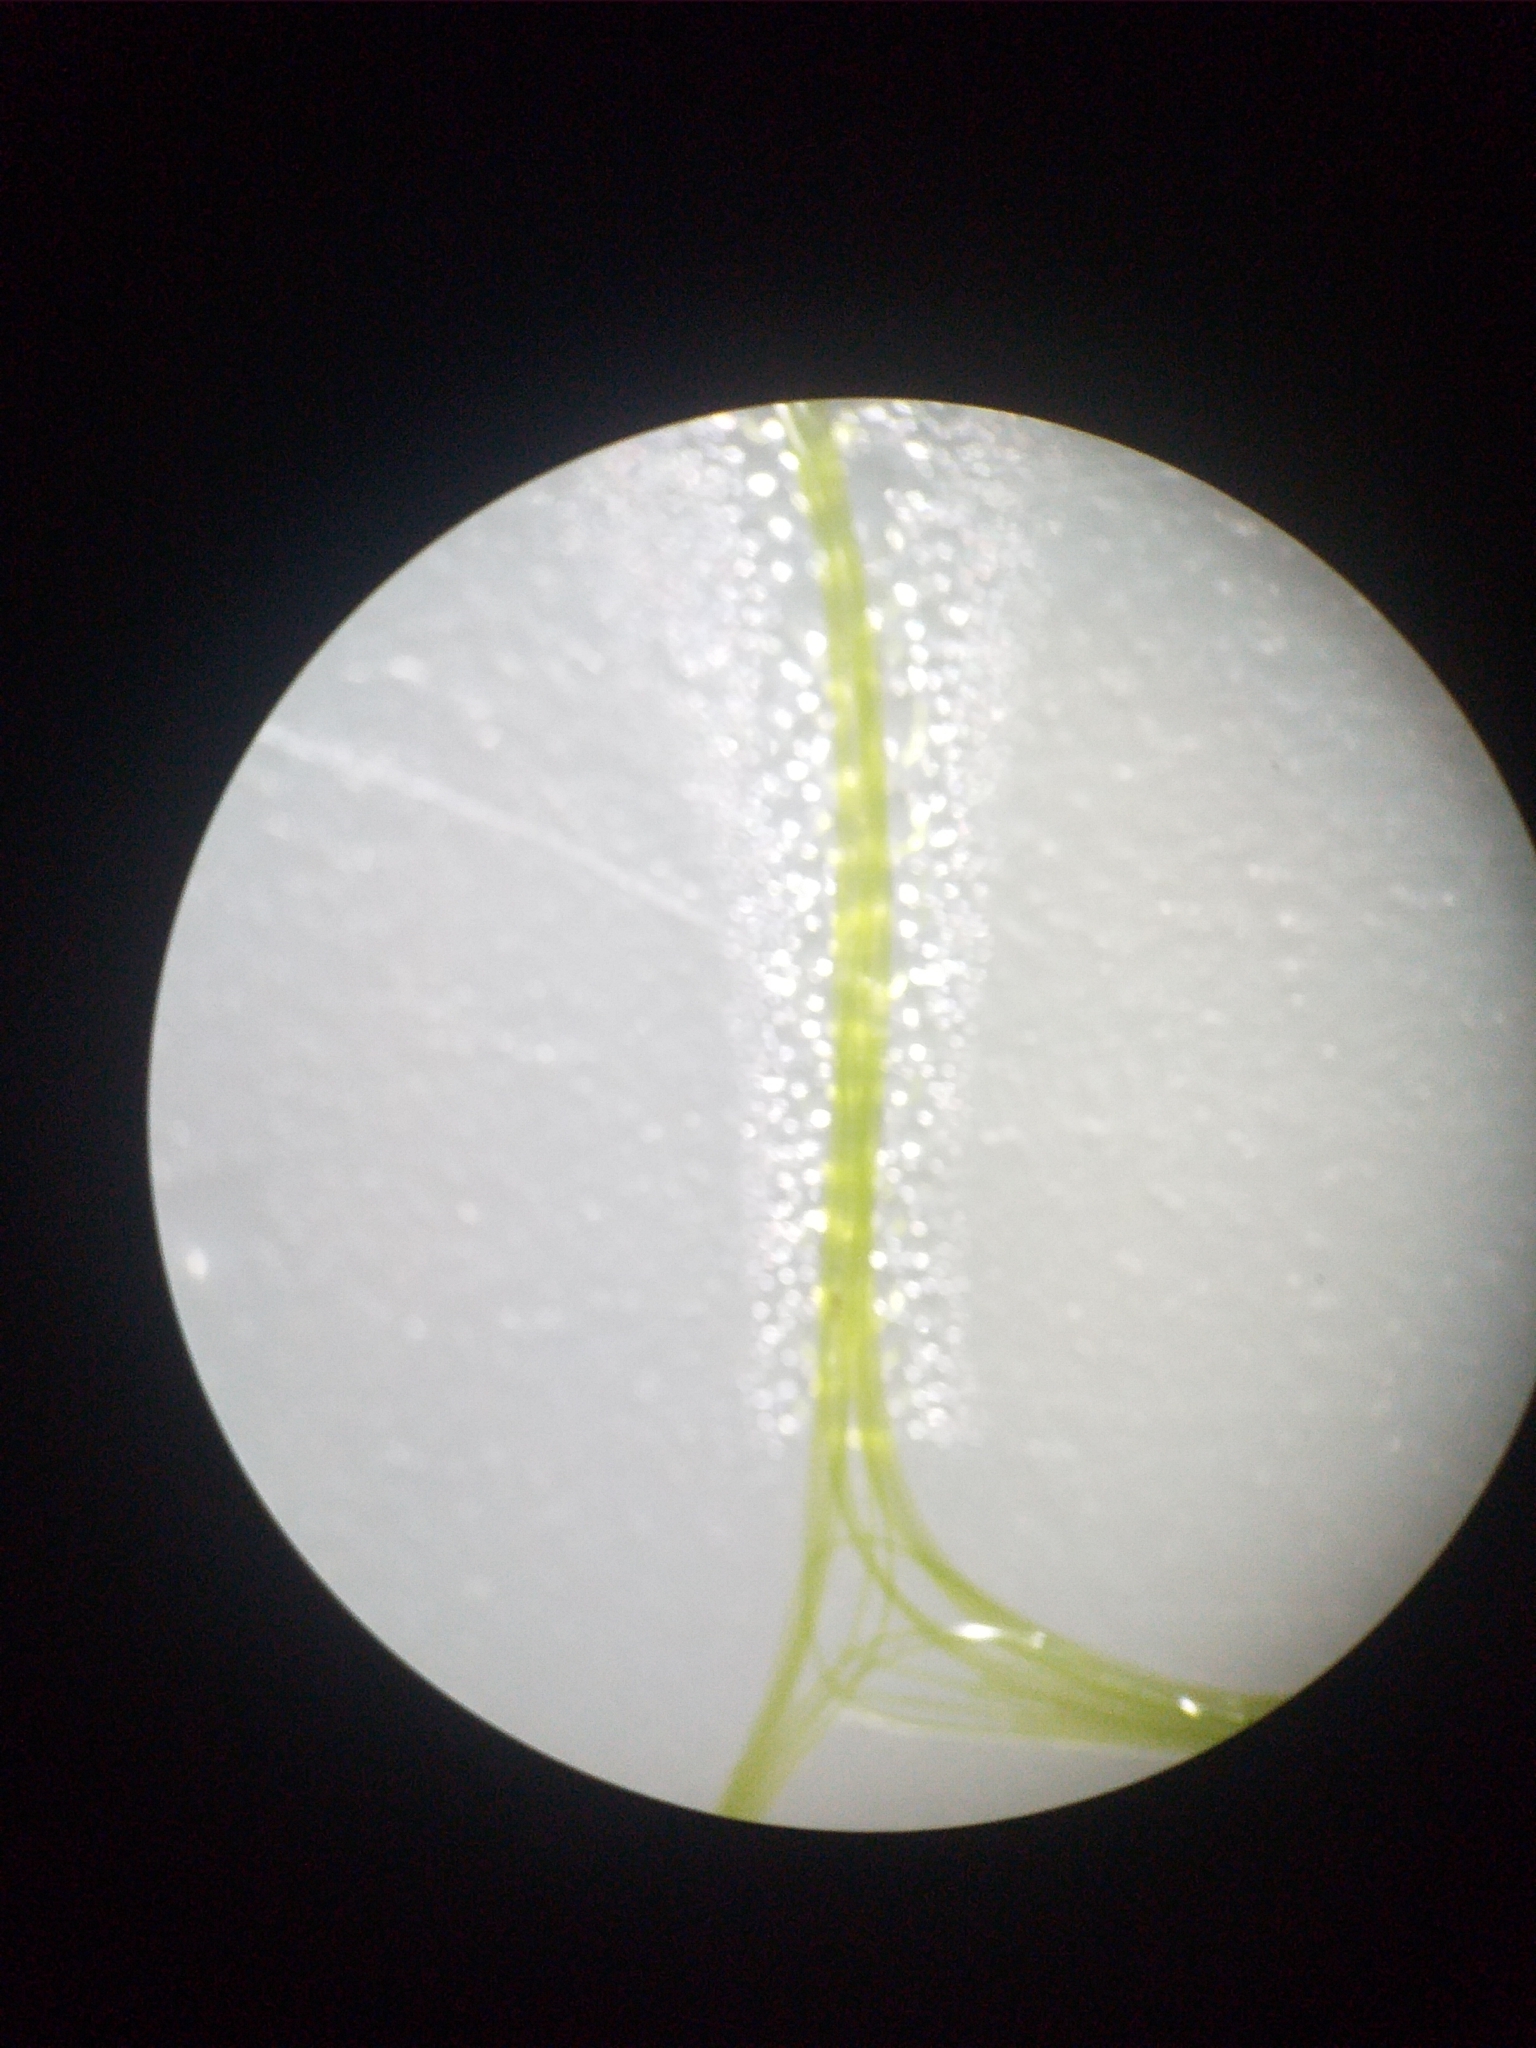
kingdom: Plantae
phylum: Charophyta
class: Zygnematophyceae
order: Zygnematales
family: Zygnemataceae
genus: Spirogyra
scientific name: Spirogyra
